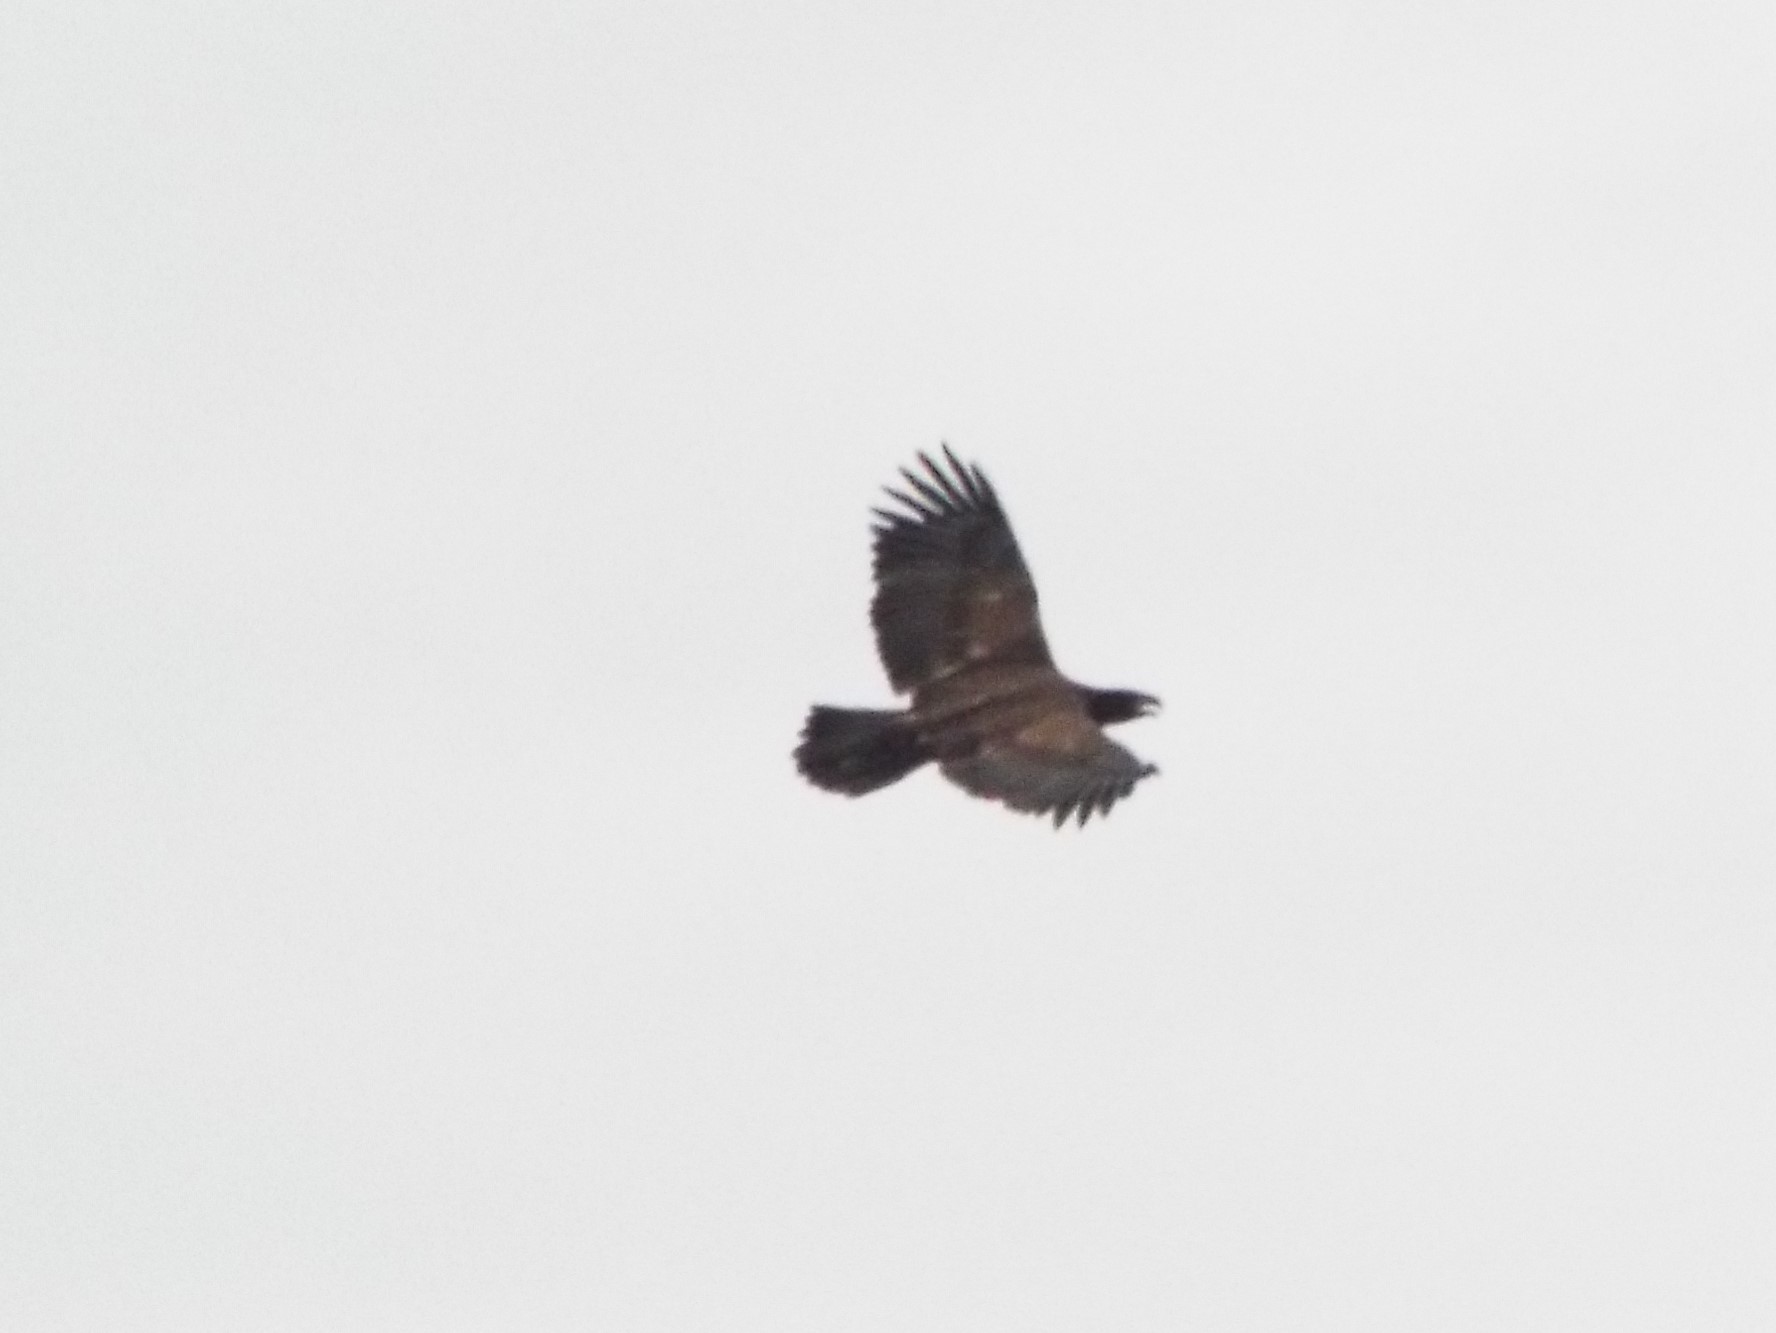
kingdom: Animalia
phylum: Chordata
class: Aves
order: Accipitriformes
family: Accipitridae
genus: Haliaeetus
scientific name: Haliaeetus leucocephalus
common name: Bald eagle
